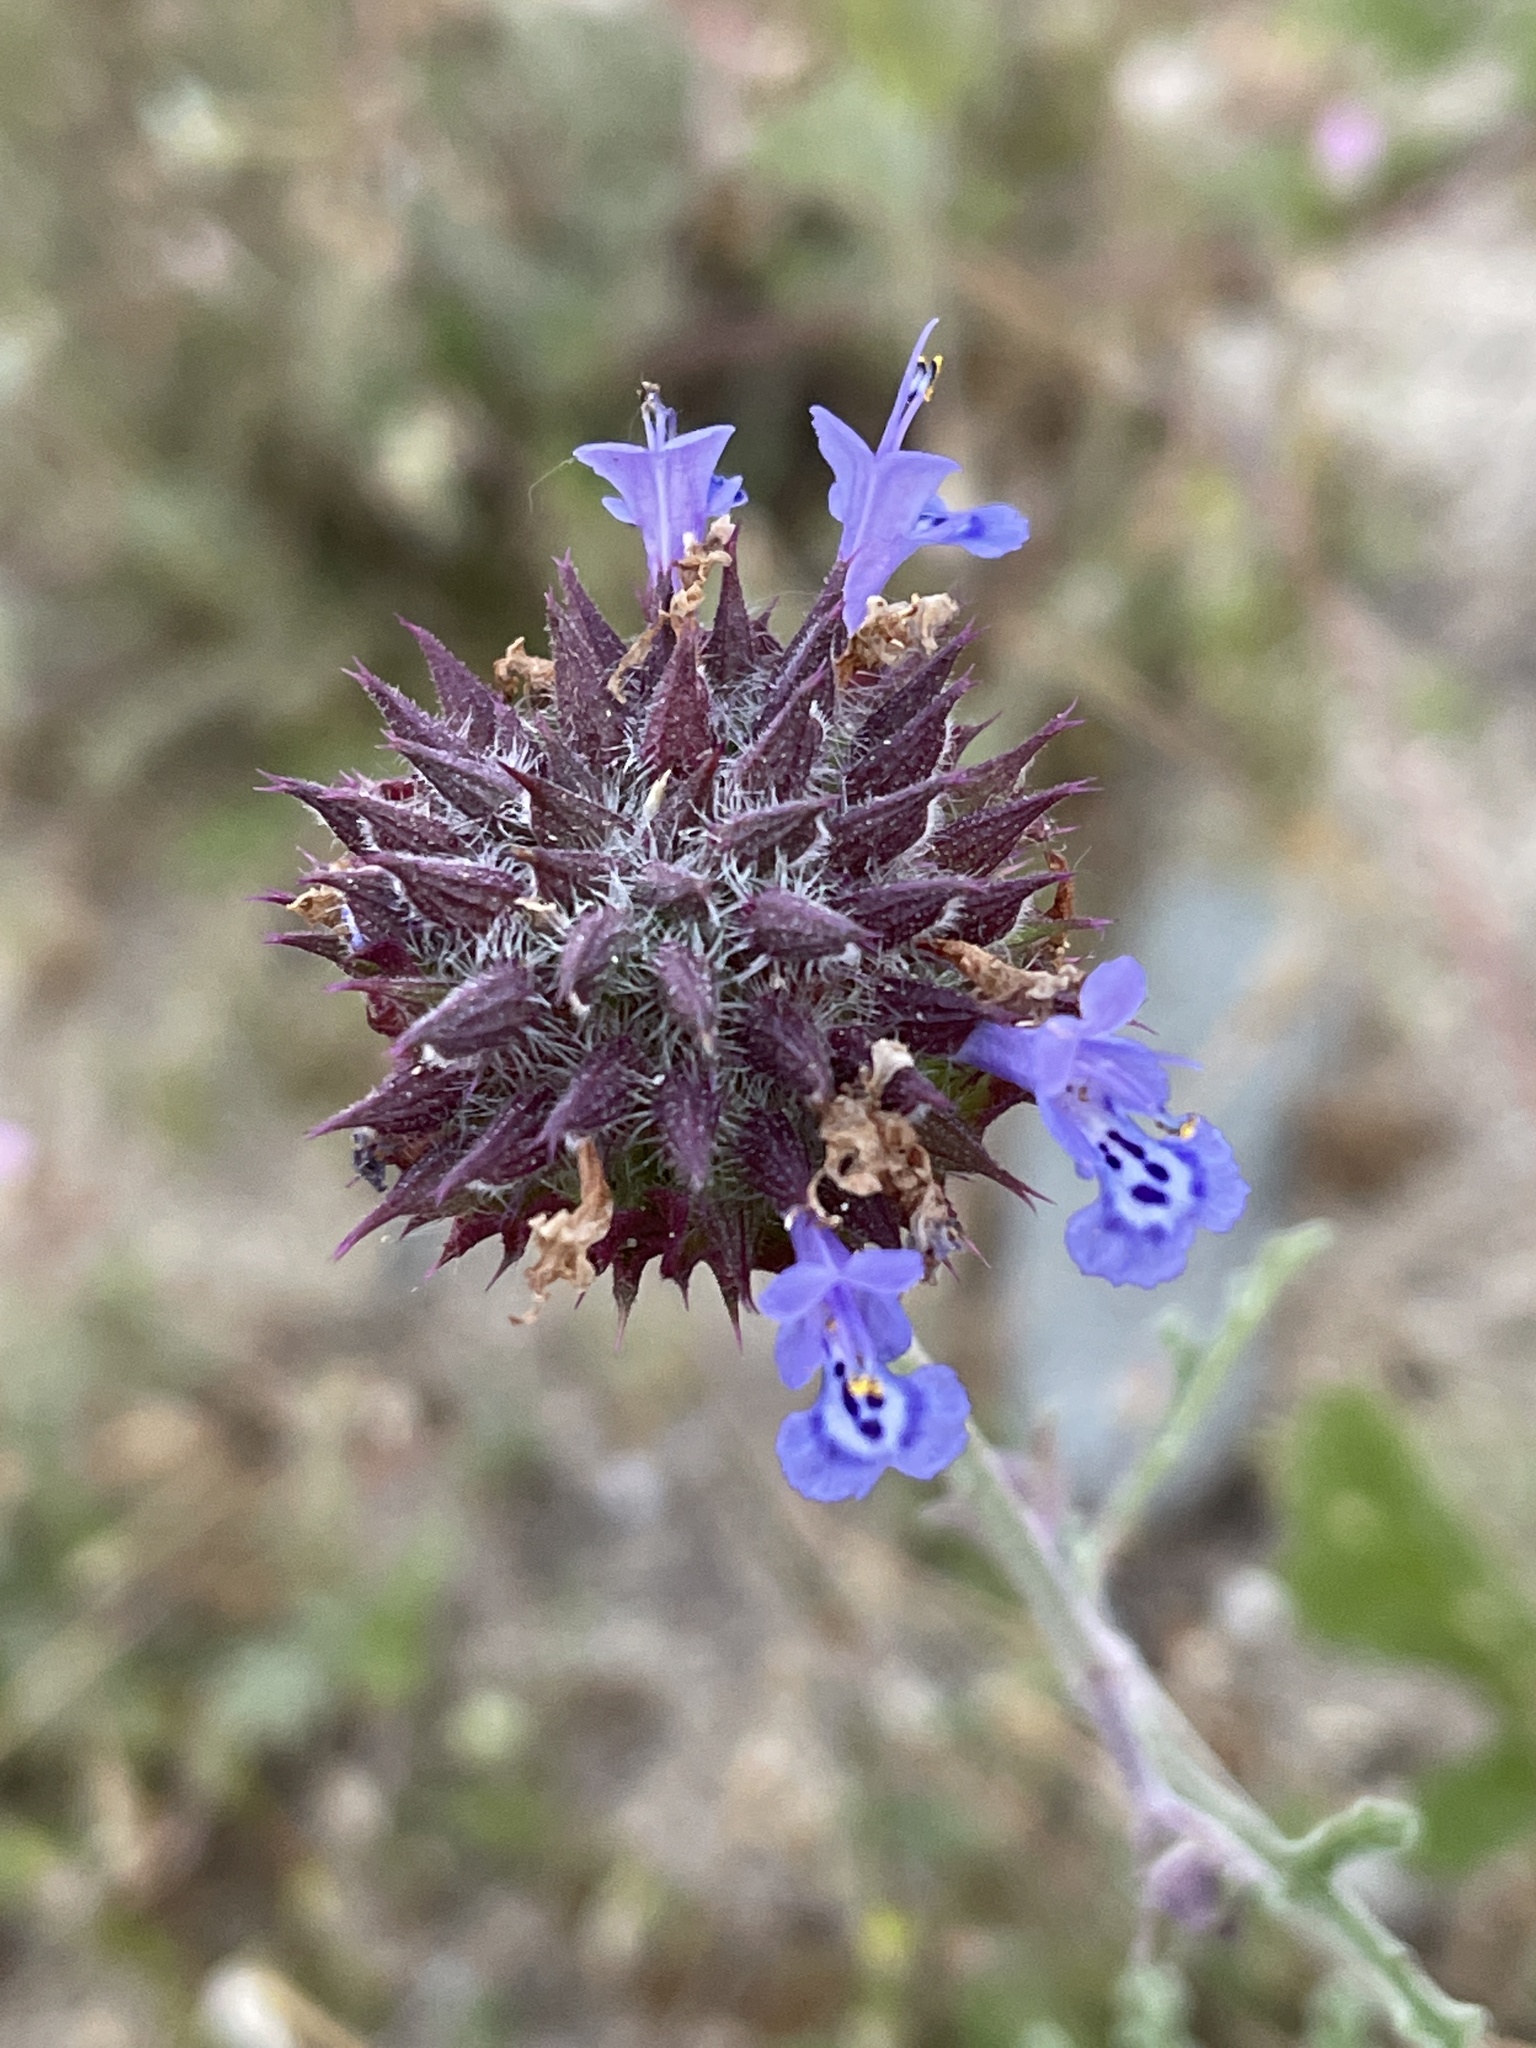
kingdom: Plantae
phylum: Tracheophyta
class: Magnoliopsida
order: Lamiales
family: Lamiaceae
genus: Salvia
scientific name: Salvia columbariae
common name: Chia
